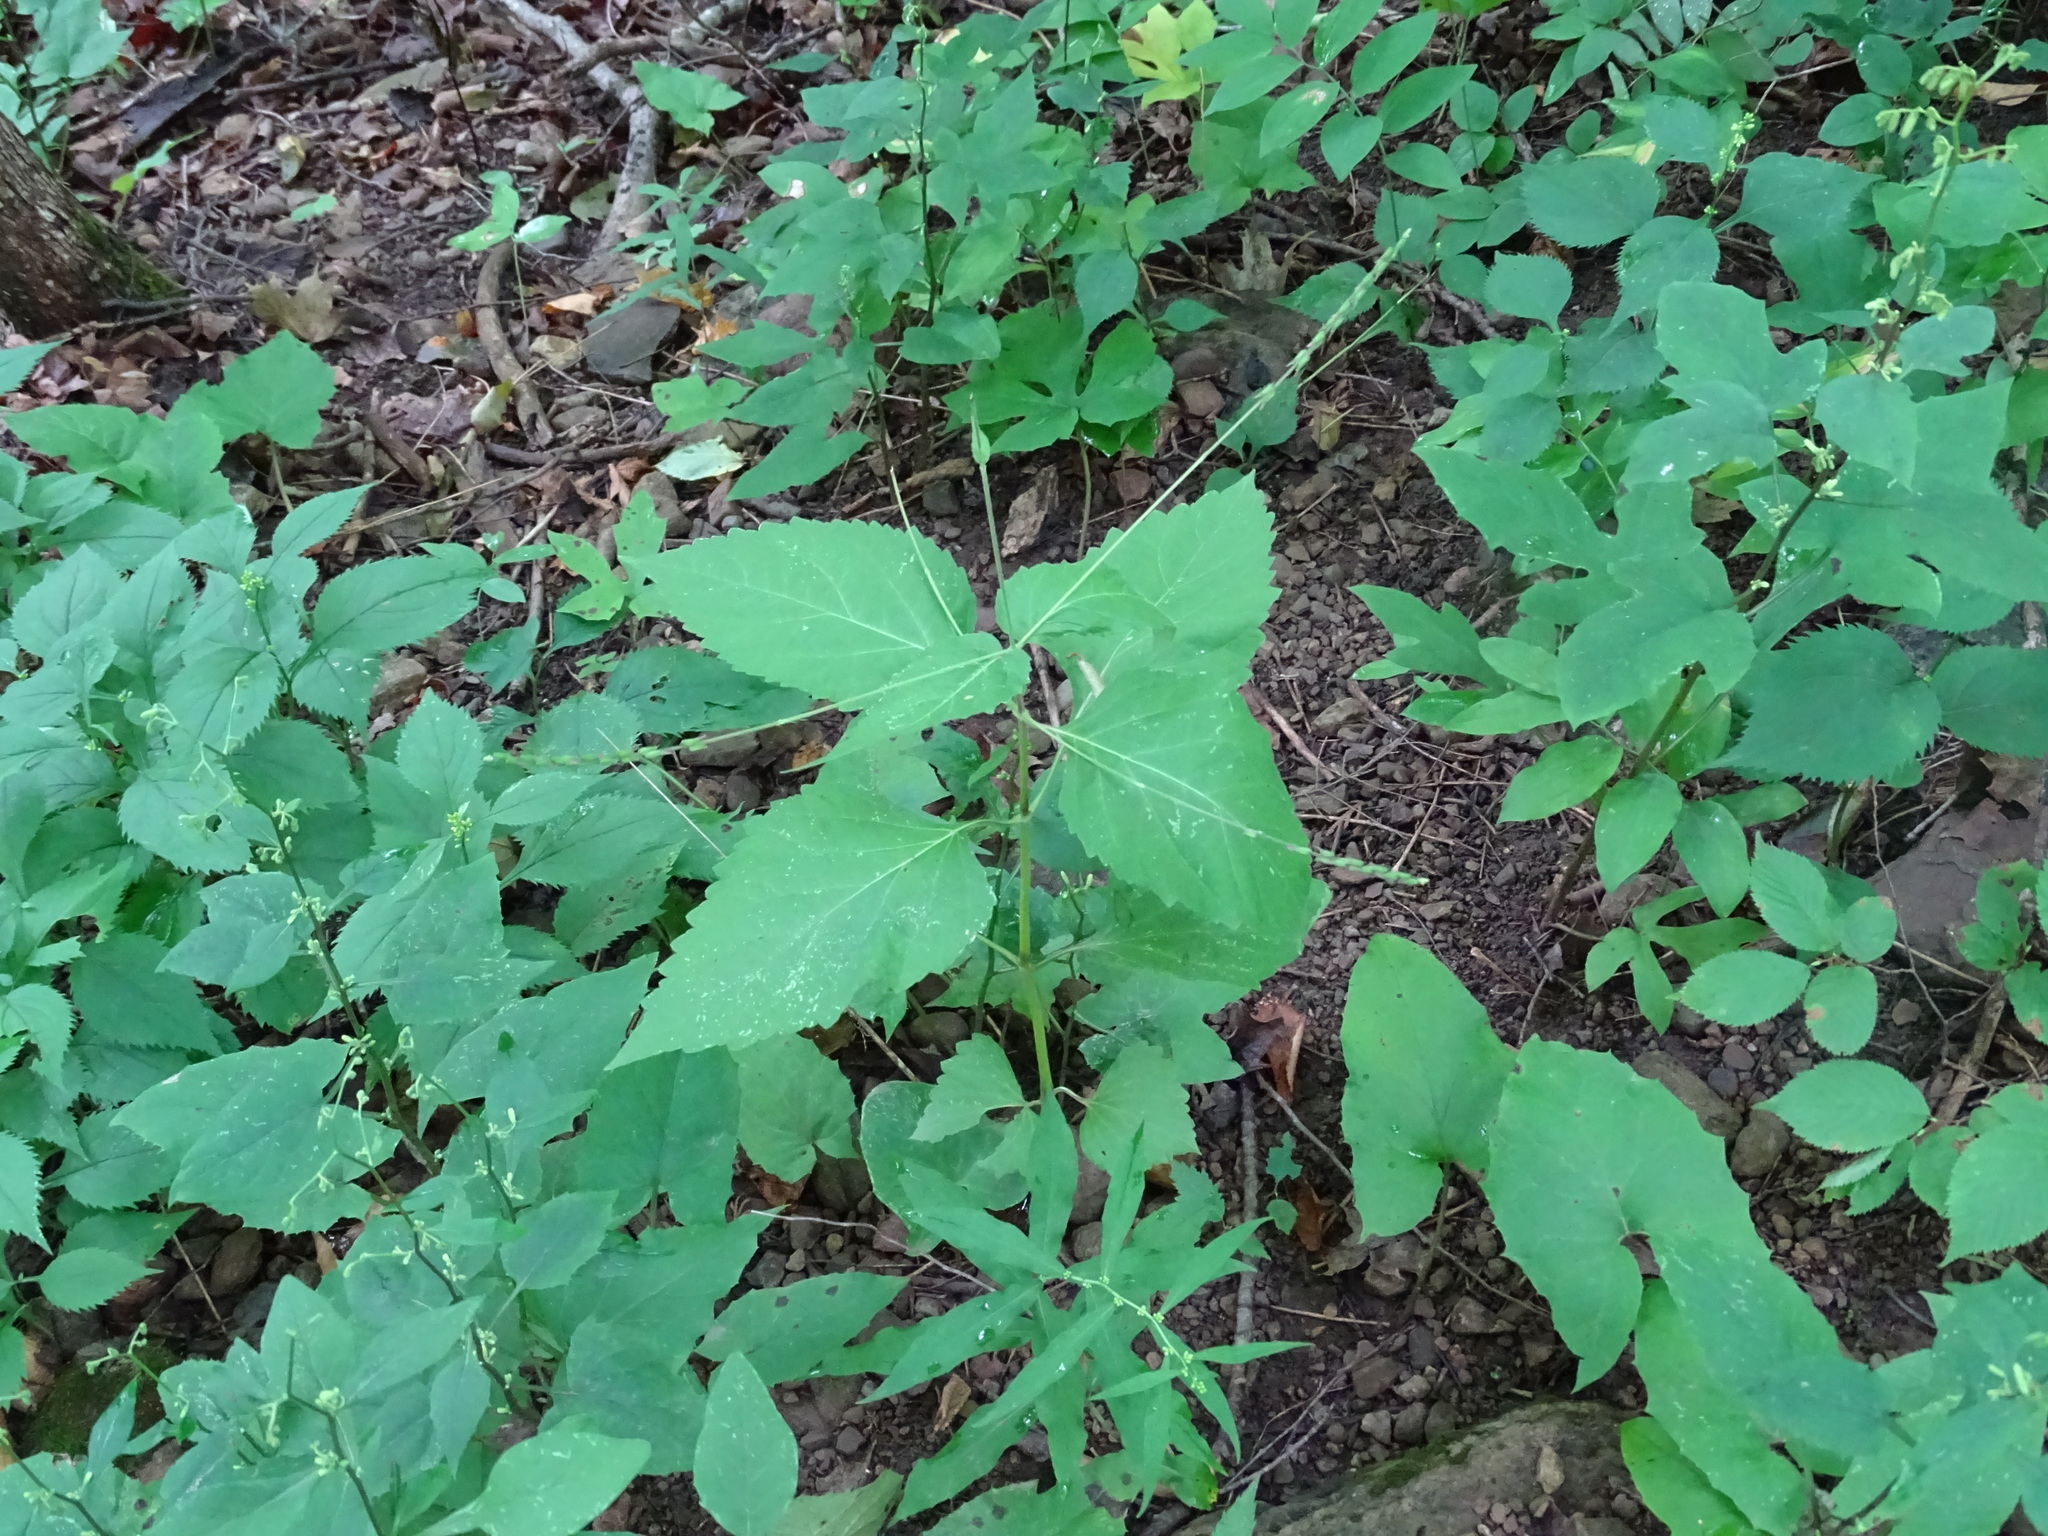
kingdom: Plantae
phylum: Tracheophyta
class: Magnoliopsida
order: Lamiales
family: Phrymaceae
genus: Phryma
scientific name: Phryma leptostachya
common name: American lopseed
